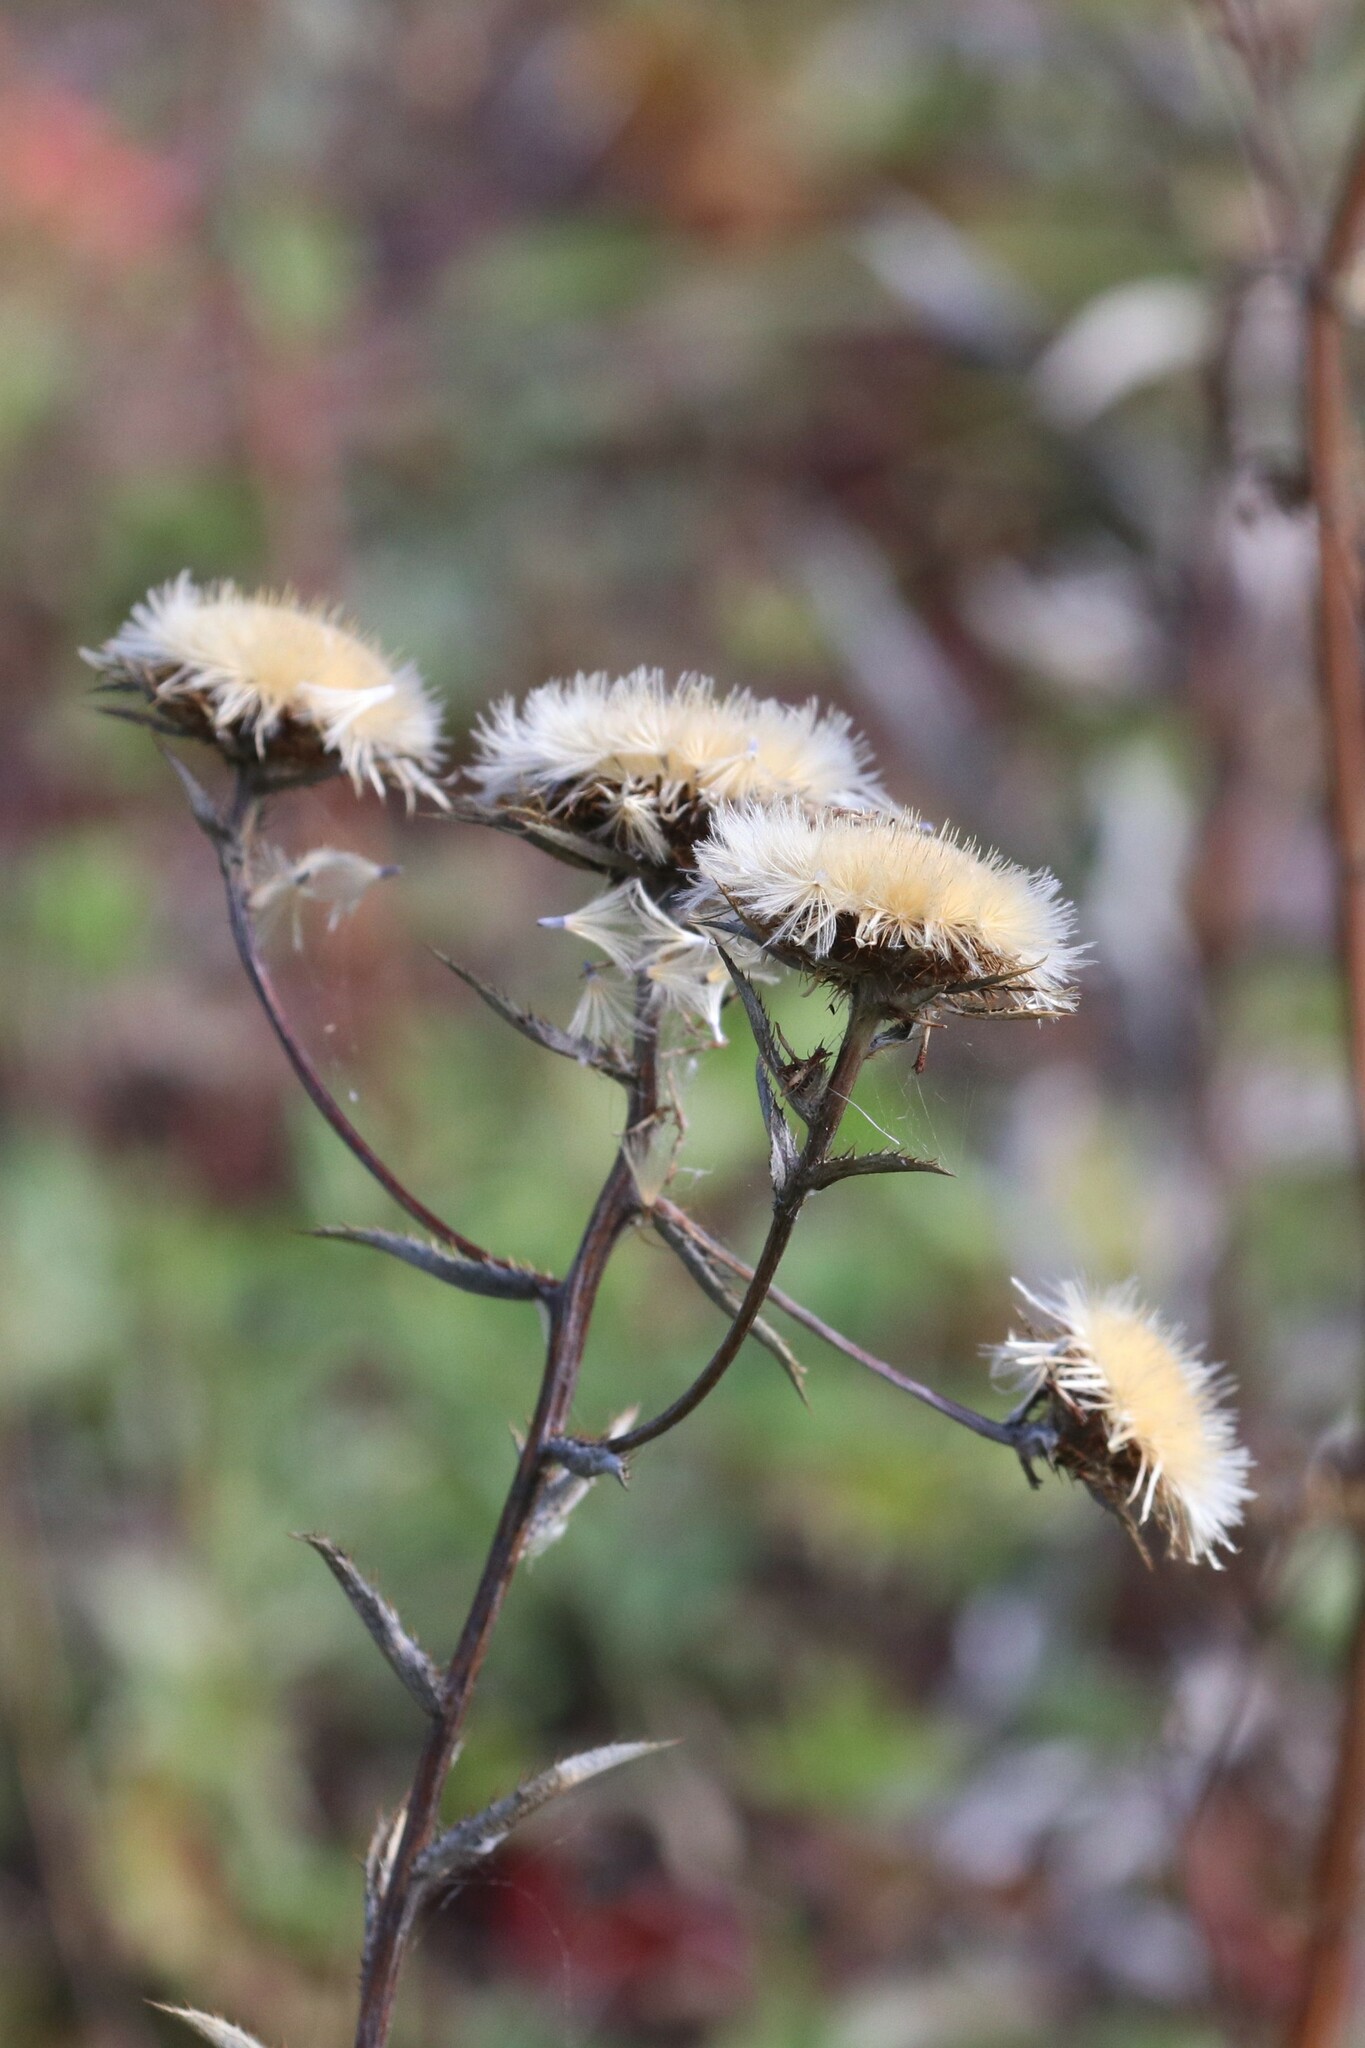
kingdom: Plantae
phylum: Tracheophyta
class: Magnoliopsida
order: Asterales
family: Asteraceae
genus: Carlina
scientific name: Carlina biebersteinii
